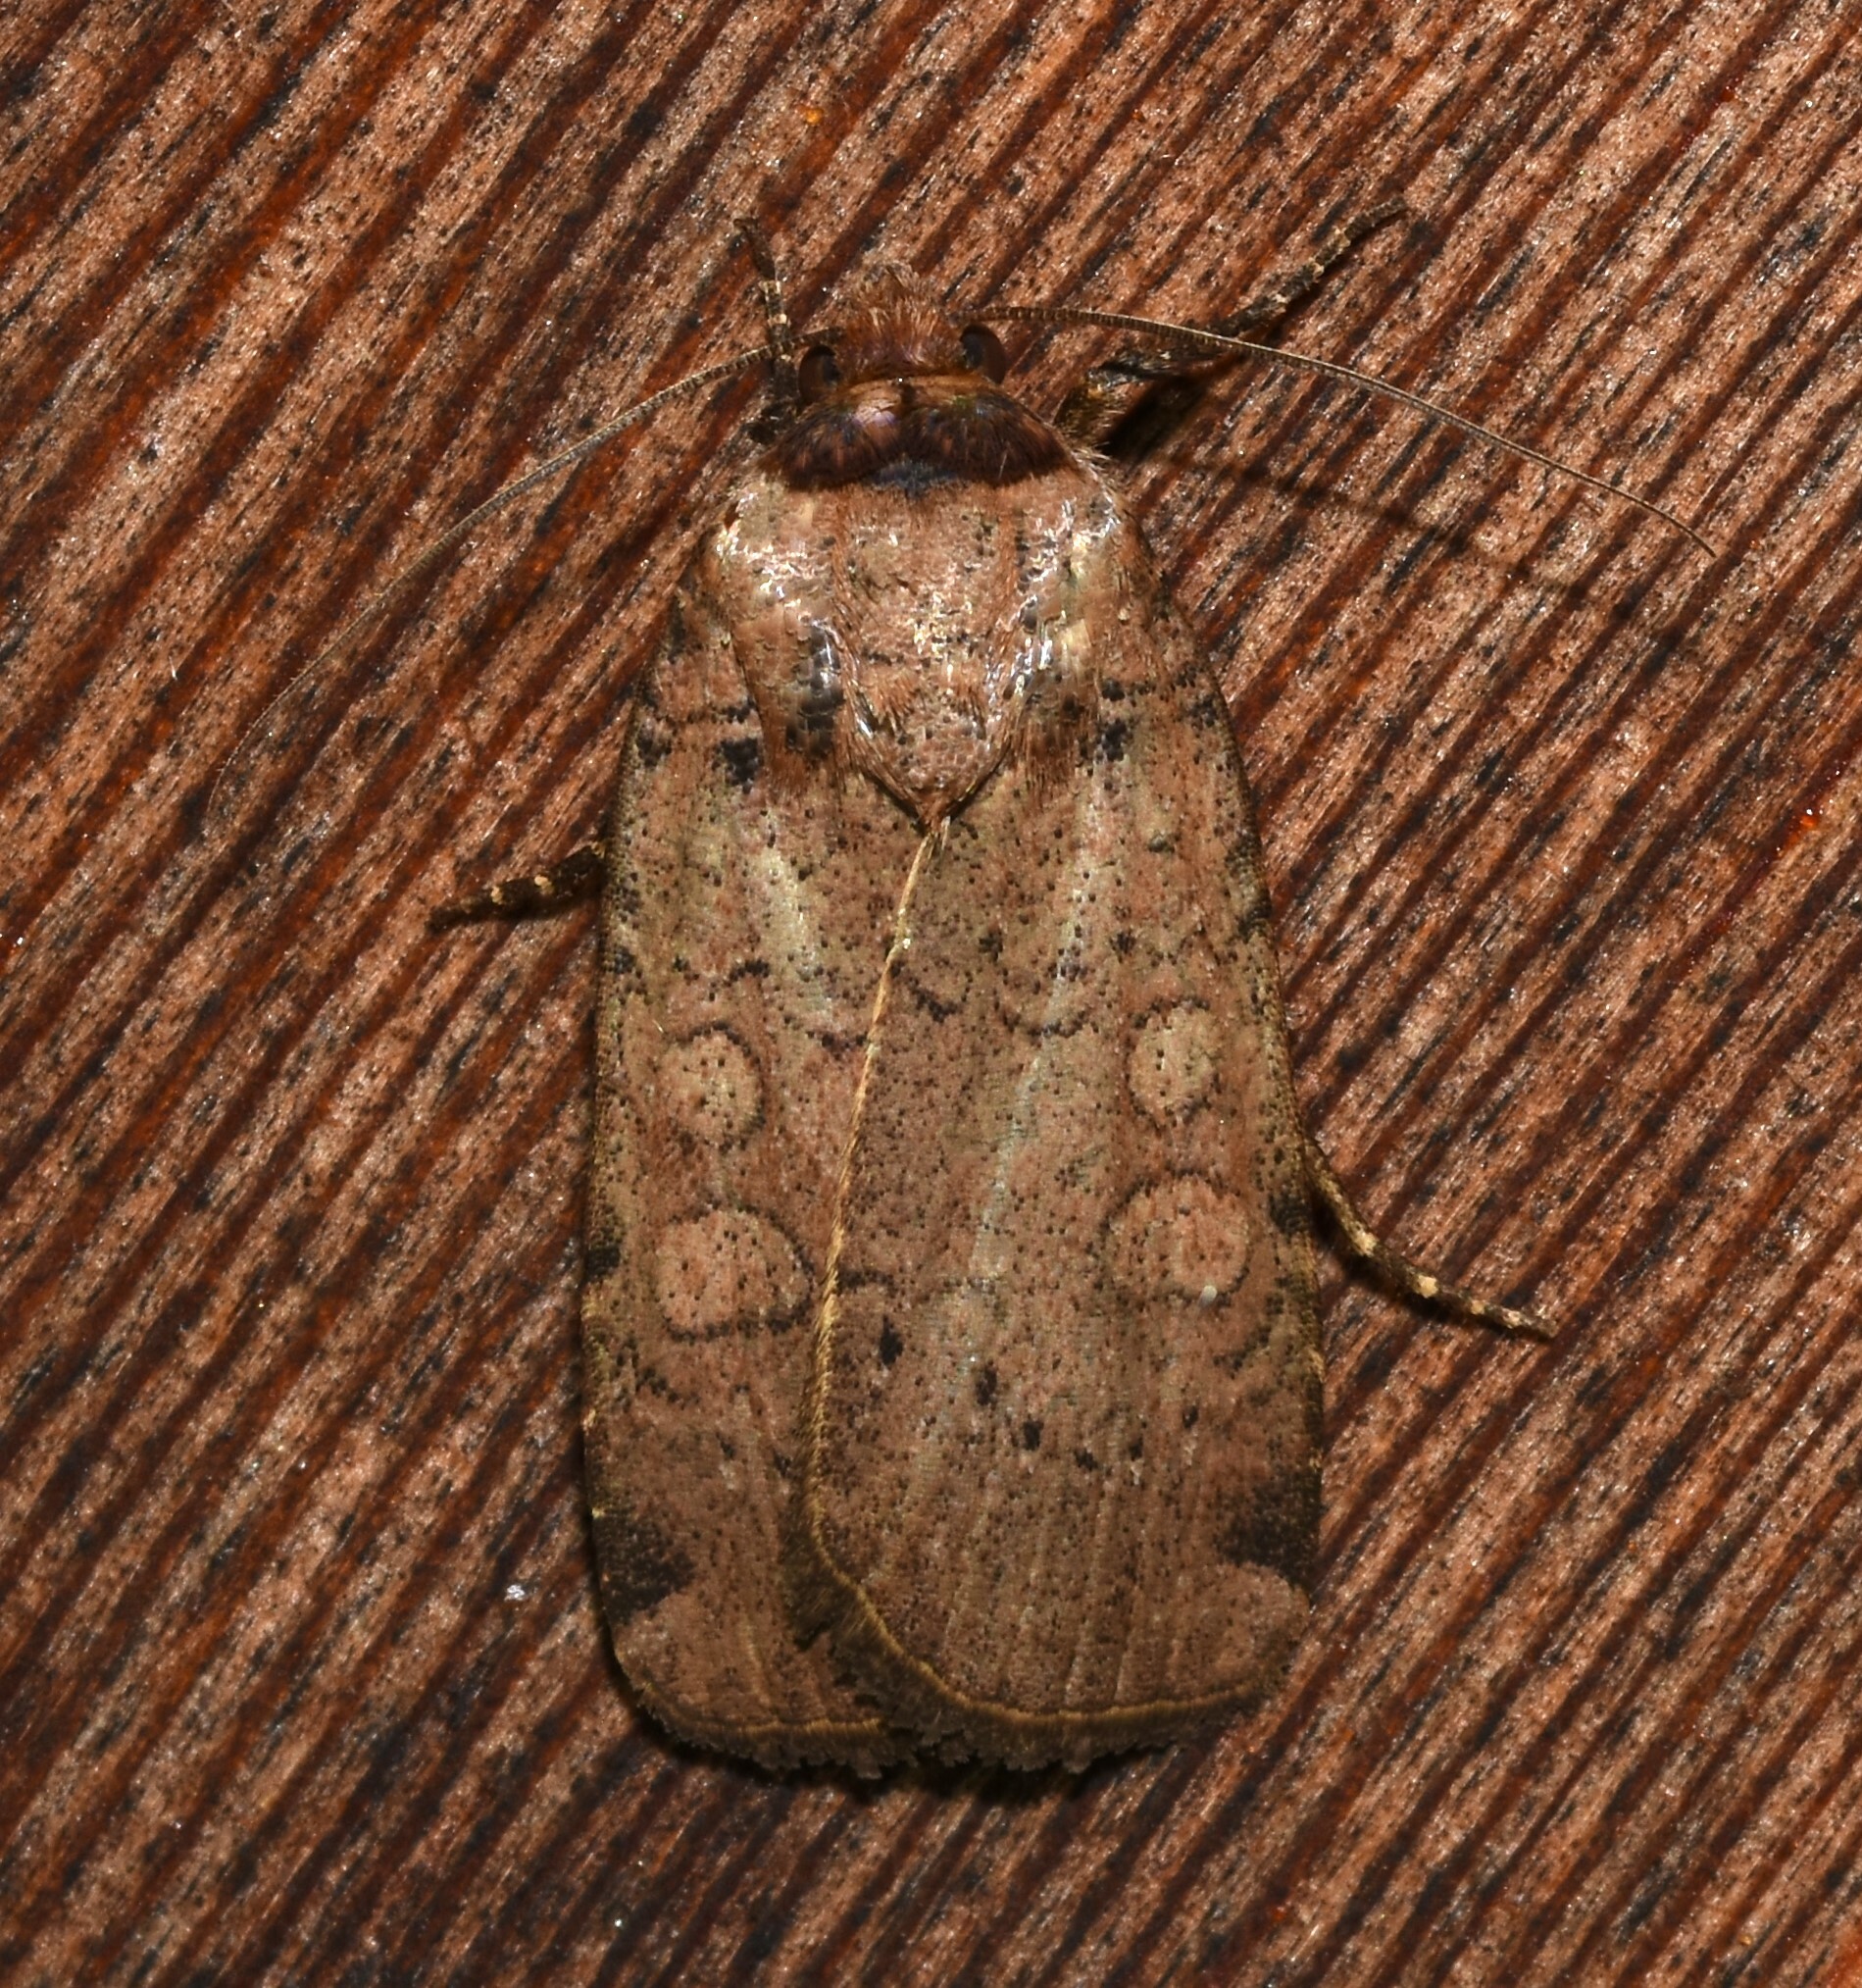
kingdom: Animalia
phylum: Arthropoda
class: Insecta
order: Lepidoptera
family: Noctuidae
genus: Protolampra
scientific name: Protolampra brunneicollis
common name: Brown-collared dart
